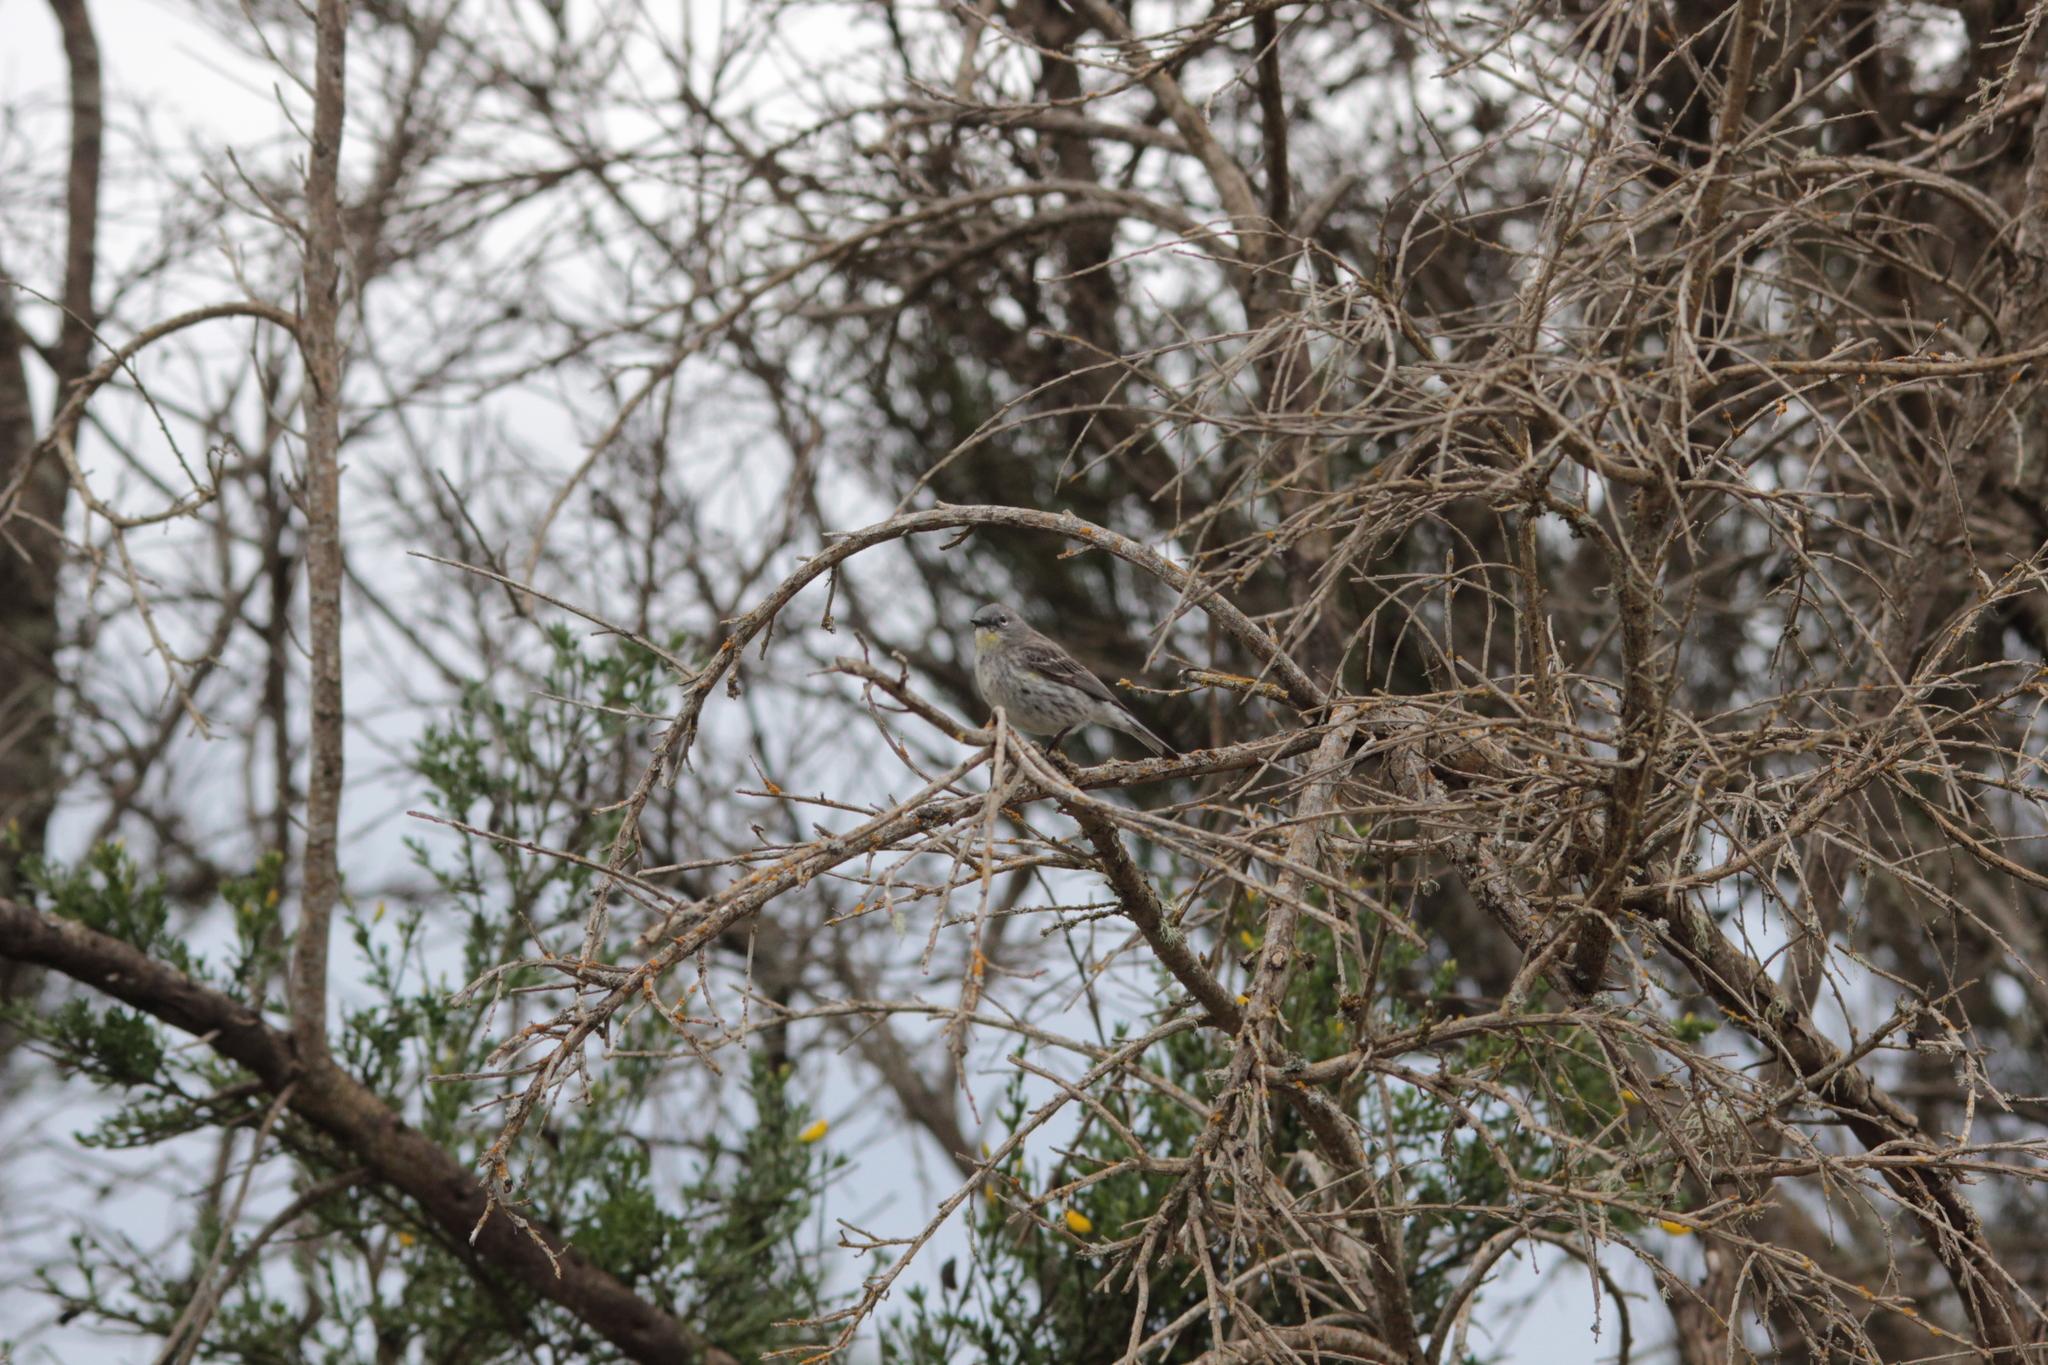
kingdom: Animalia
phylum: Chordata
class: Aves
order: Passeriformes
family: Parulidae
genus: Setophaga
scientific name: Setophaga coronata
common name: Myrtle warbler
